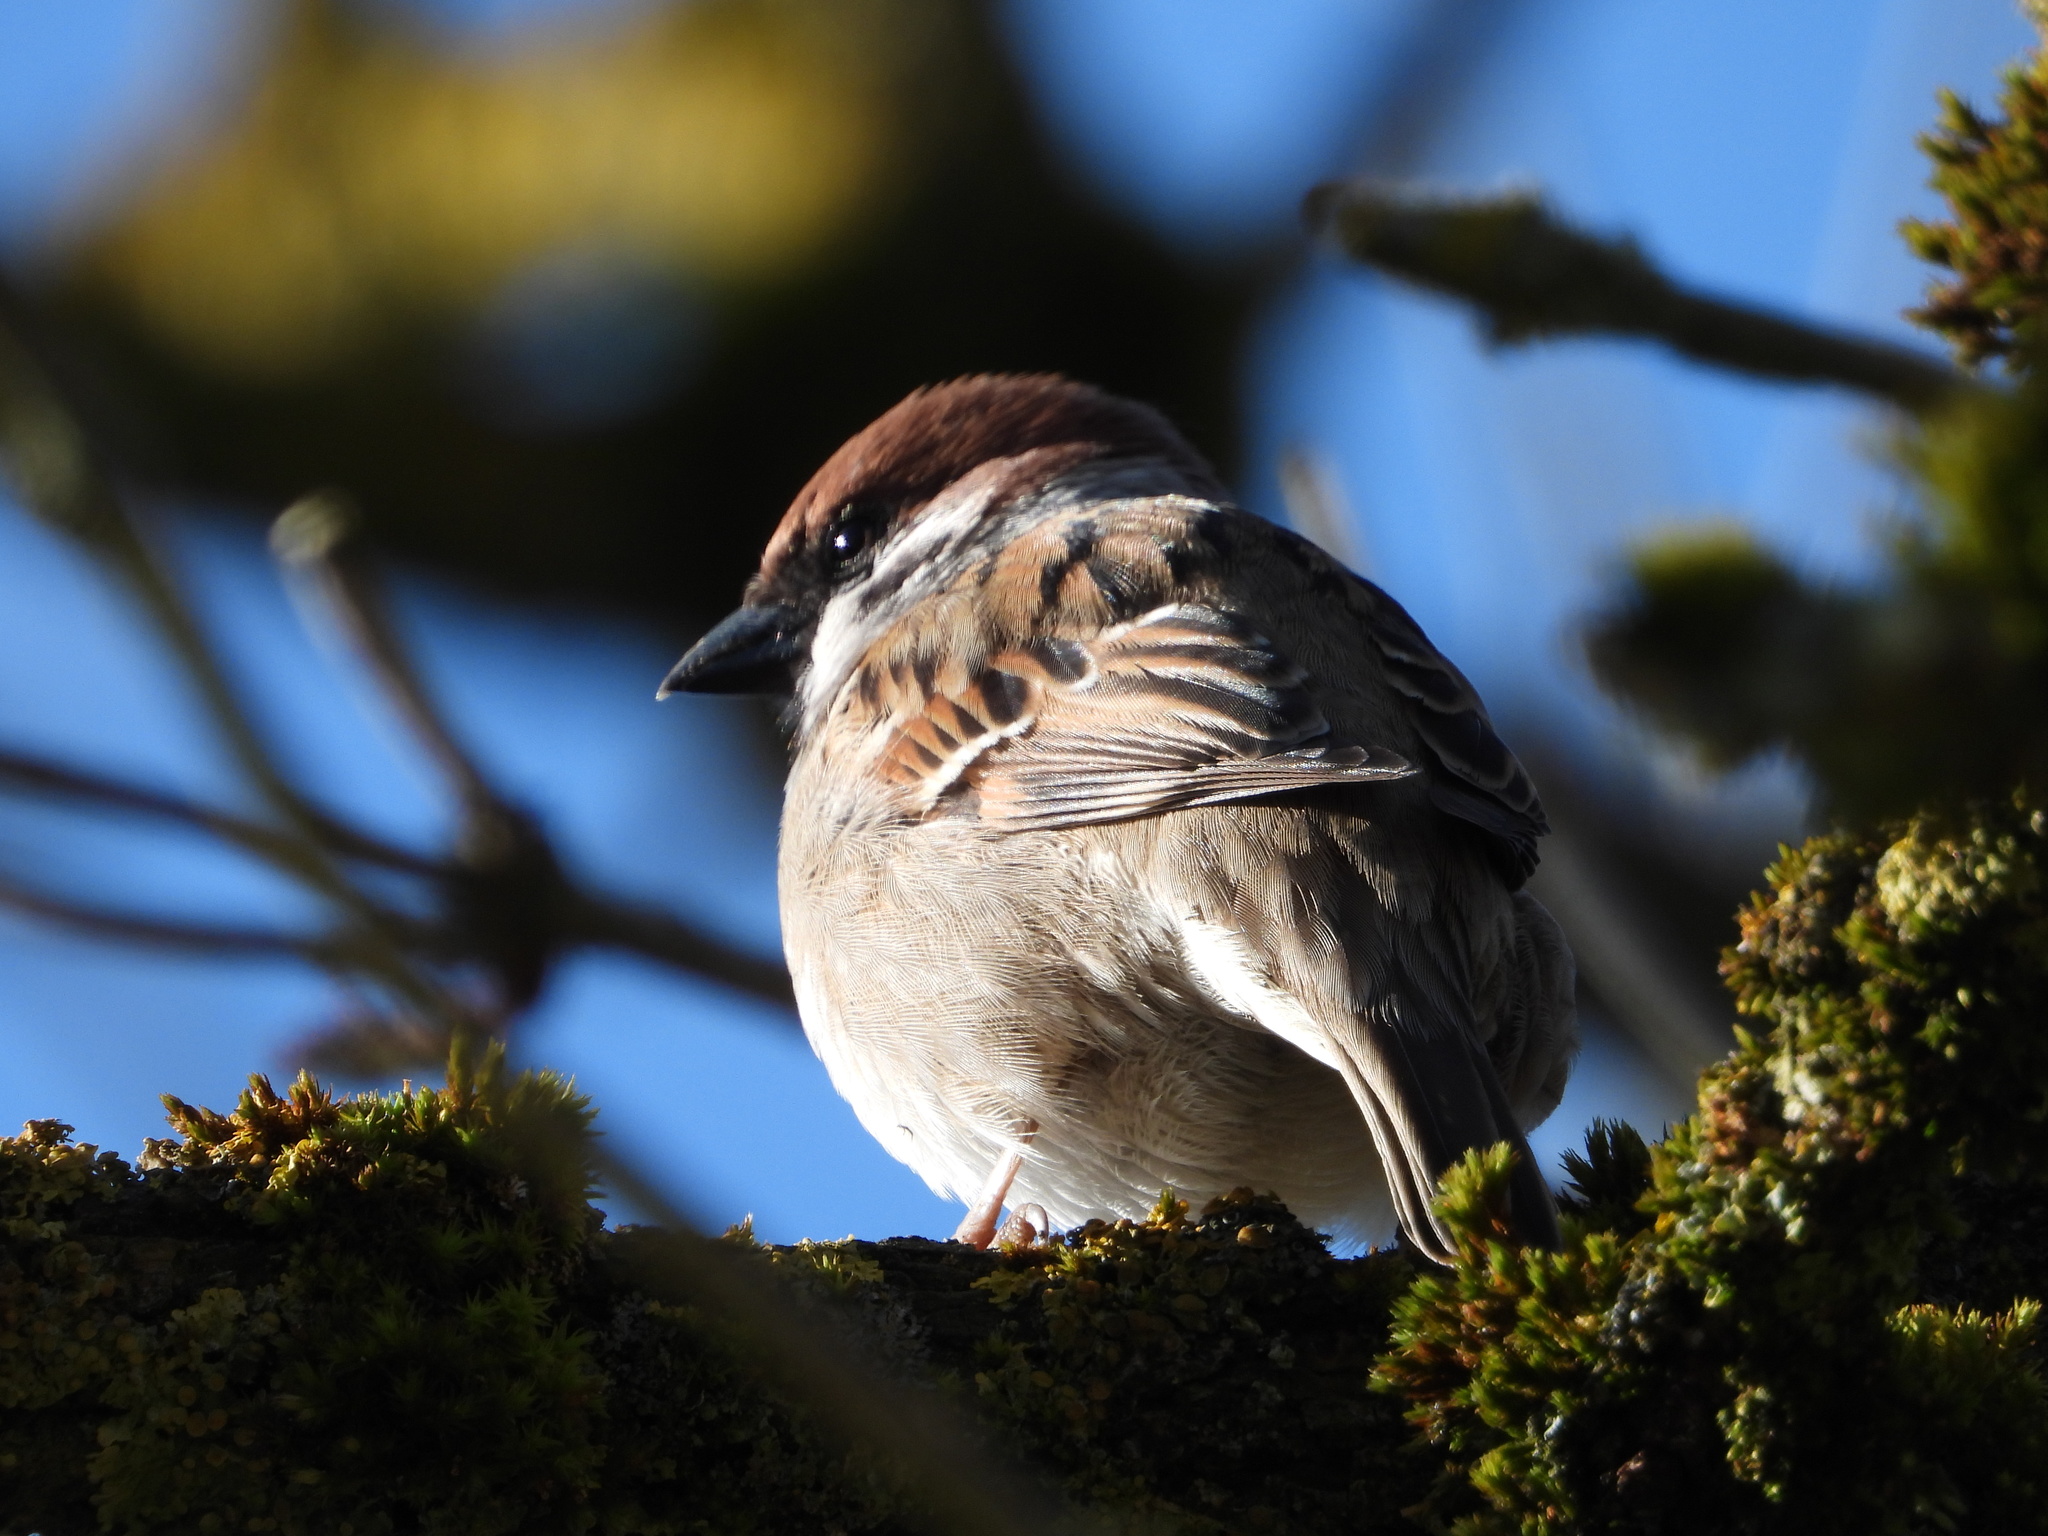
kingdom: Animalia
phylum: Chordata
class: Aves
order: Passeriformes
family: Passeridae
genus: Passer
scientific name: Passer montanus
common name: Eurasian tree sparrow
